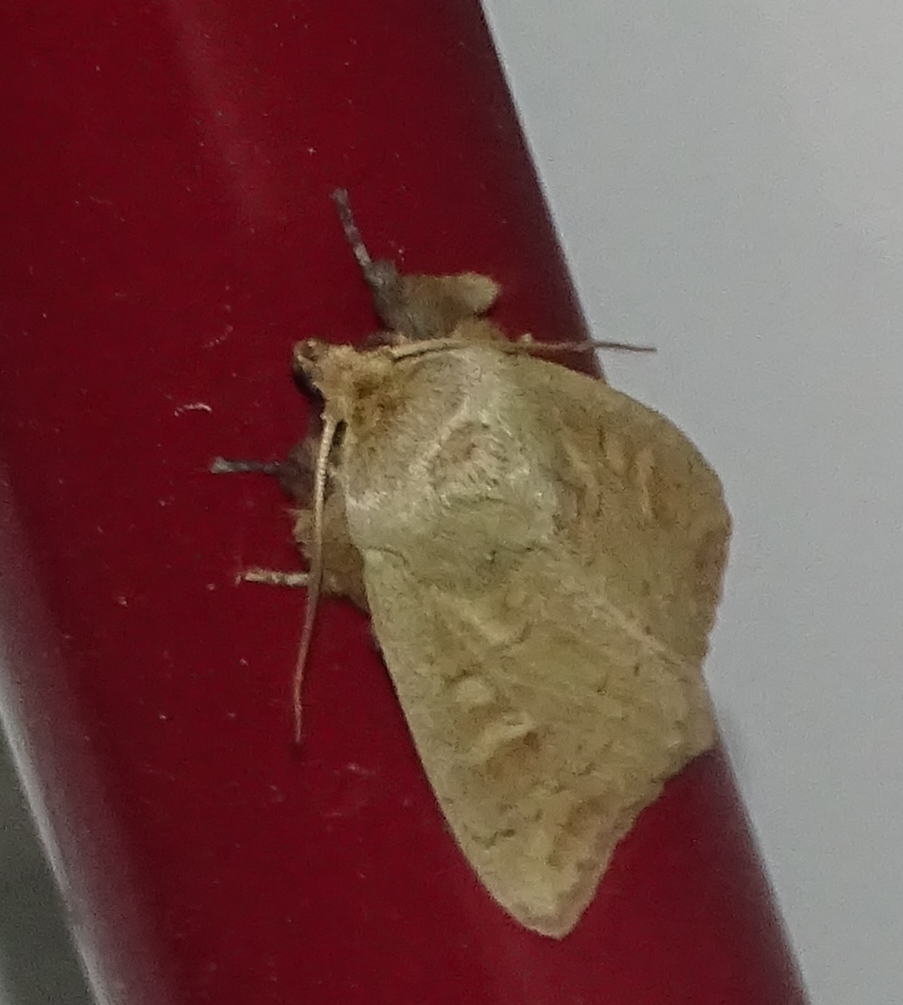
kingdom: Animalia
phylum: Arthropoda
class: Insecta
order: Lepidoptera
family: Noctuidae
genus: Leucania
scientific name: Leucania pseudargyria
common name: False wainscot
